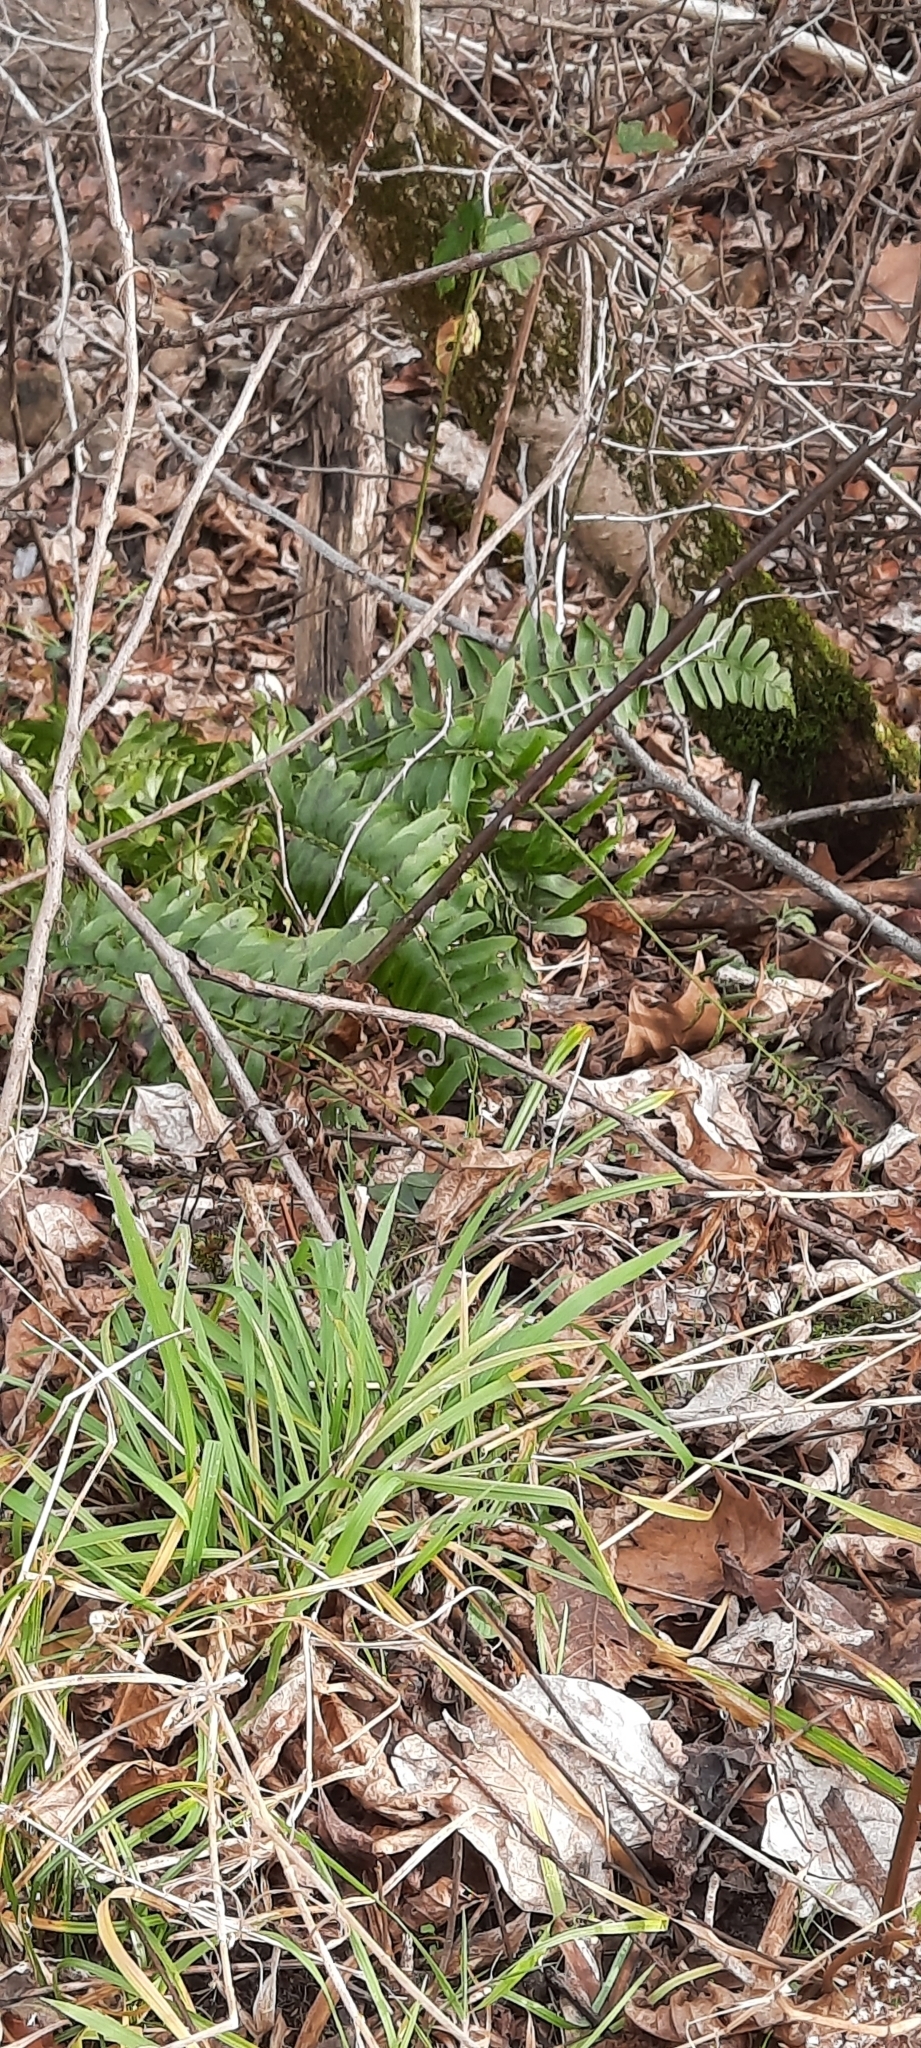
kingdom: Plantae
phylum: Tracheophyta
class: Polypodiopsida
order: Polypodiales
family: Dryopteridaceae
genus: Polystichum
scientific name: Polystichum acrostichoides
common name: Christmas fern
